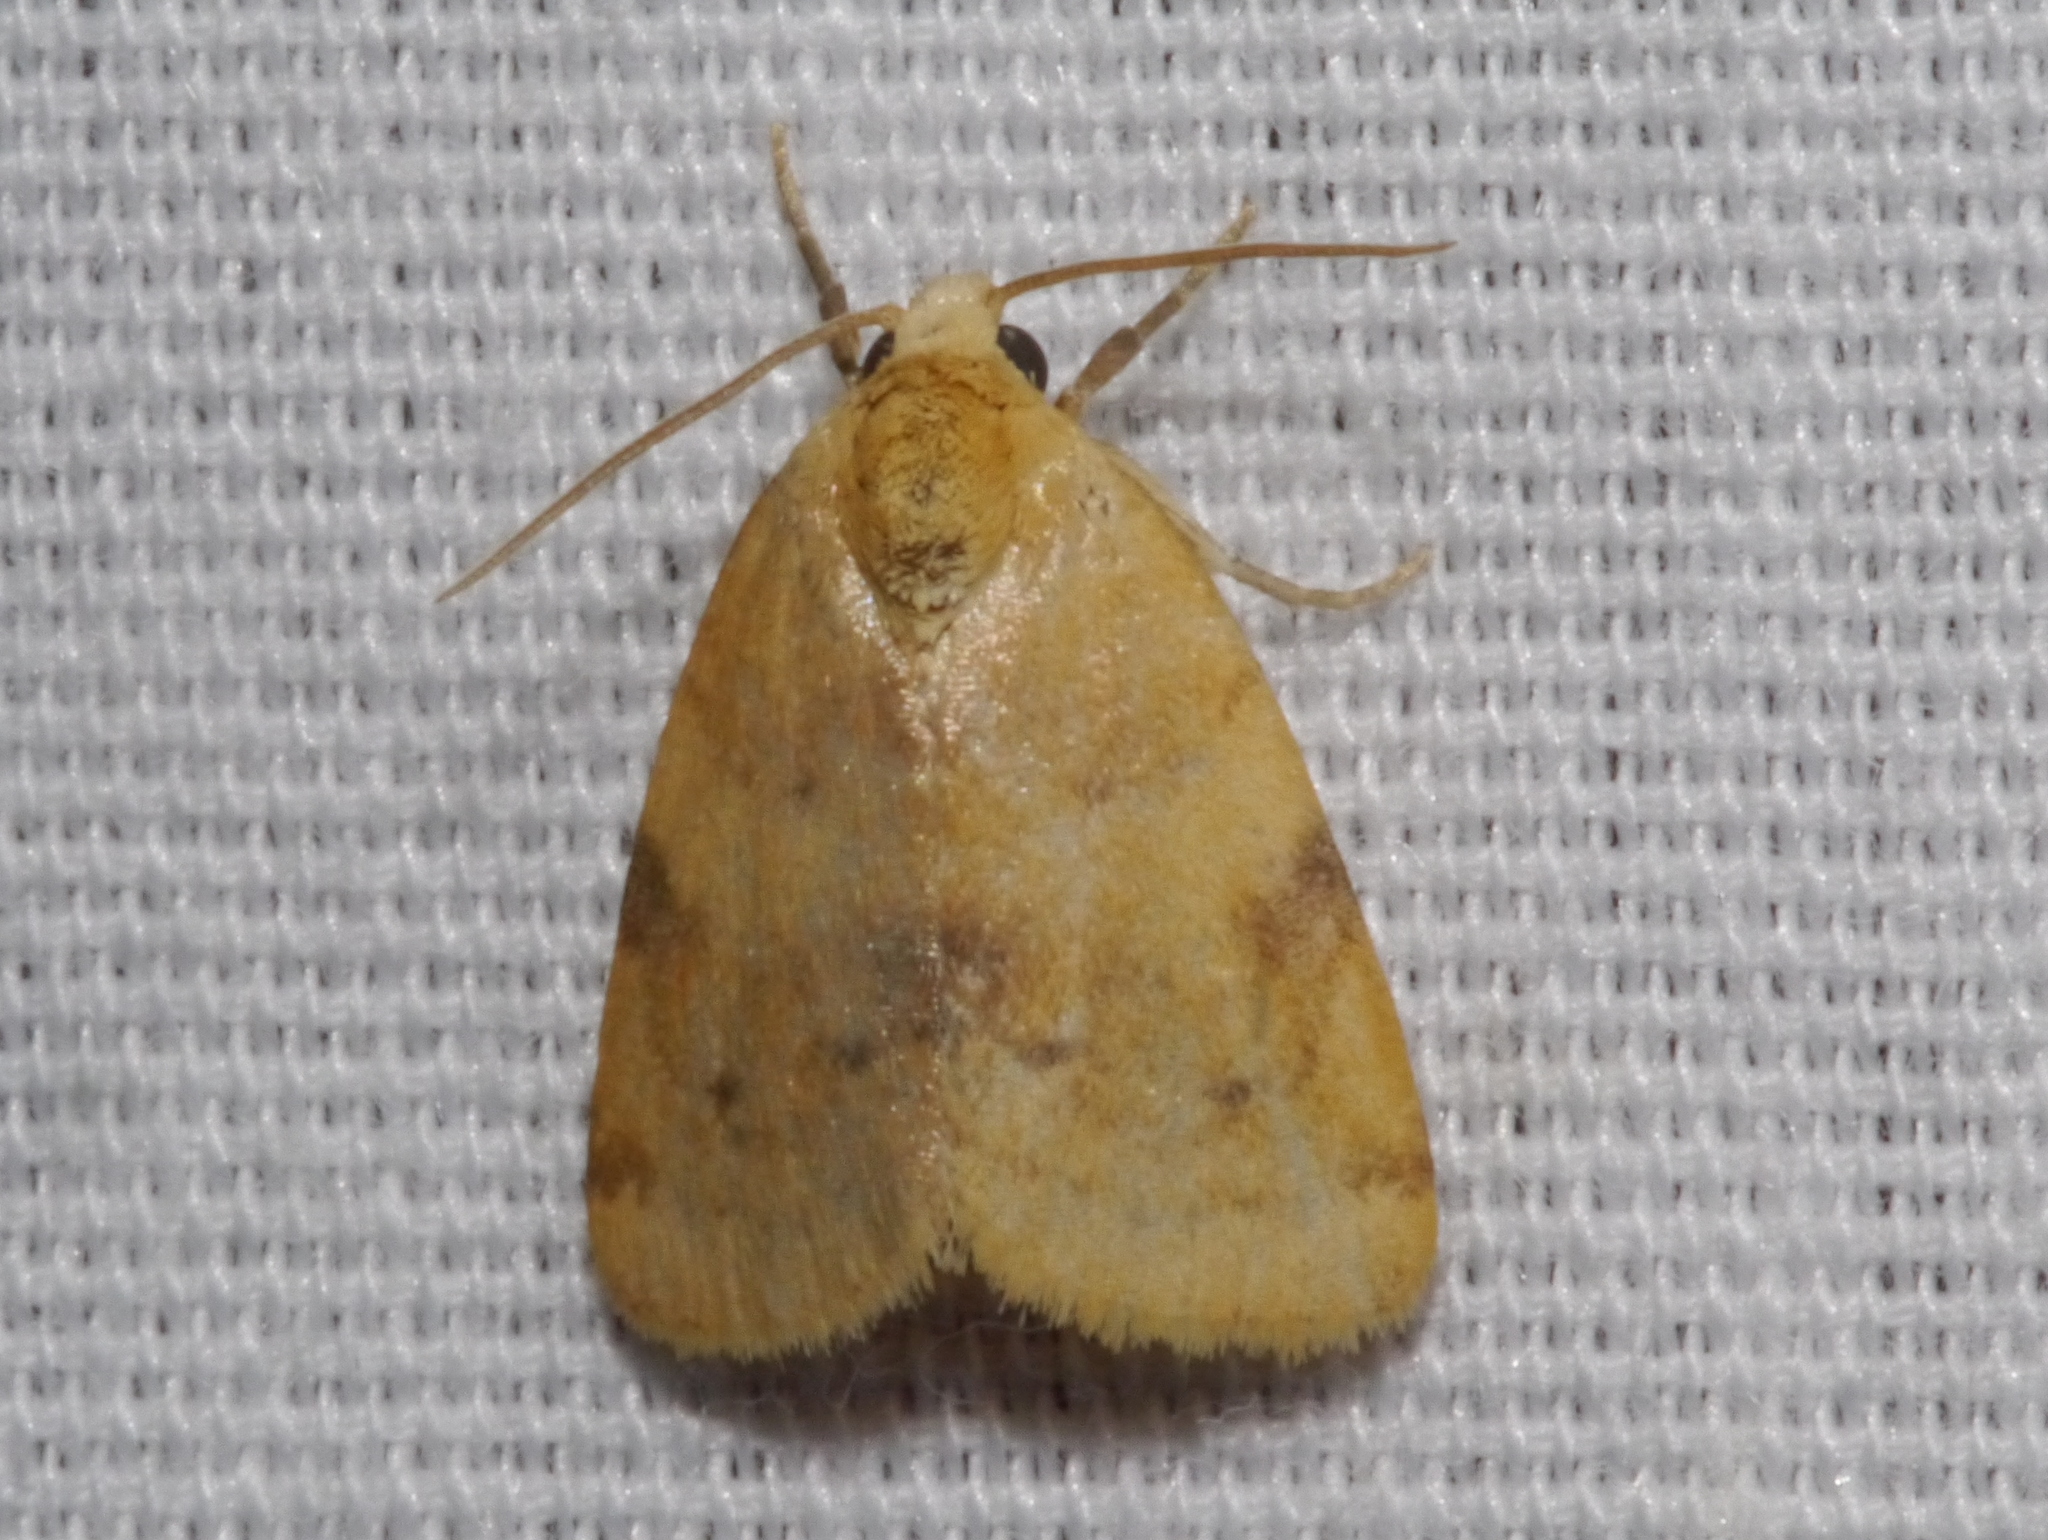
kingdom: Animalia
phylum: Arthropoda
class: Insecta
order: Lepidoptera
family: Noctuidae
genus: Azenia
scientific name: Azenia procida
